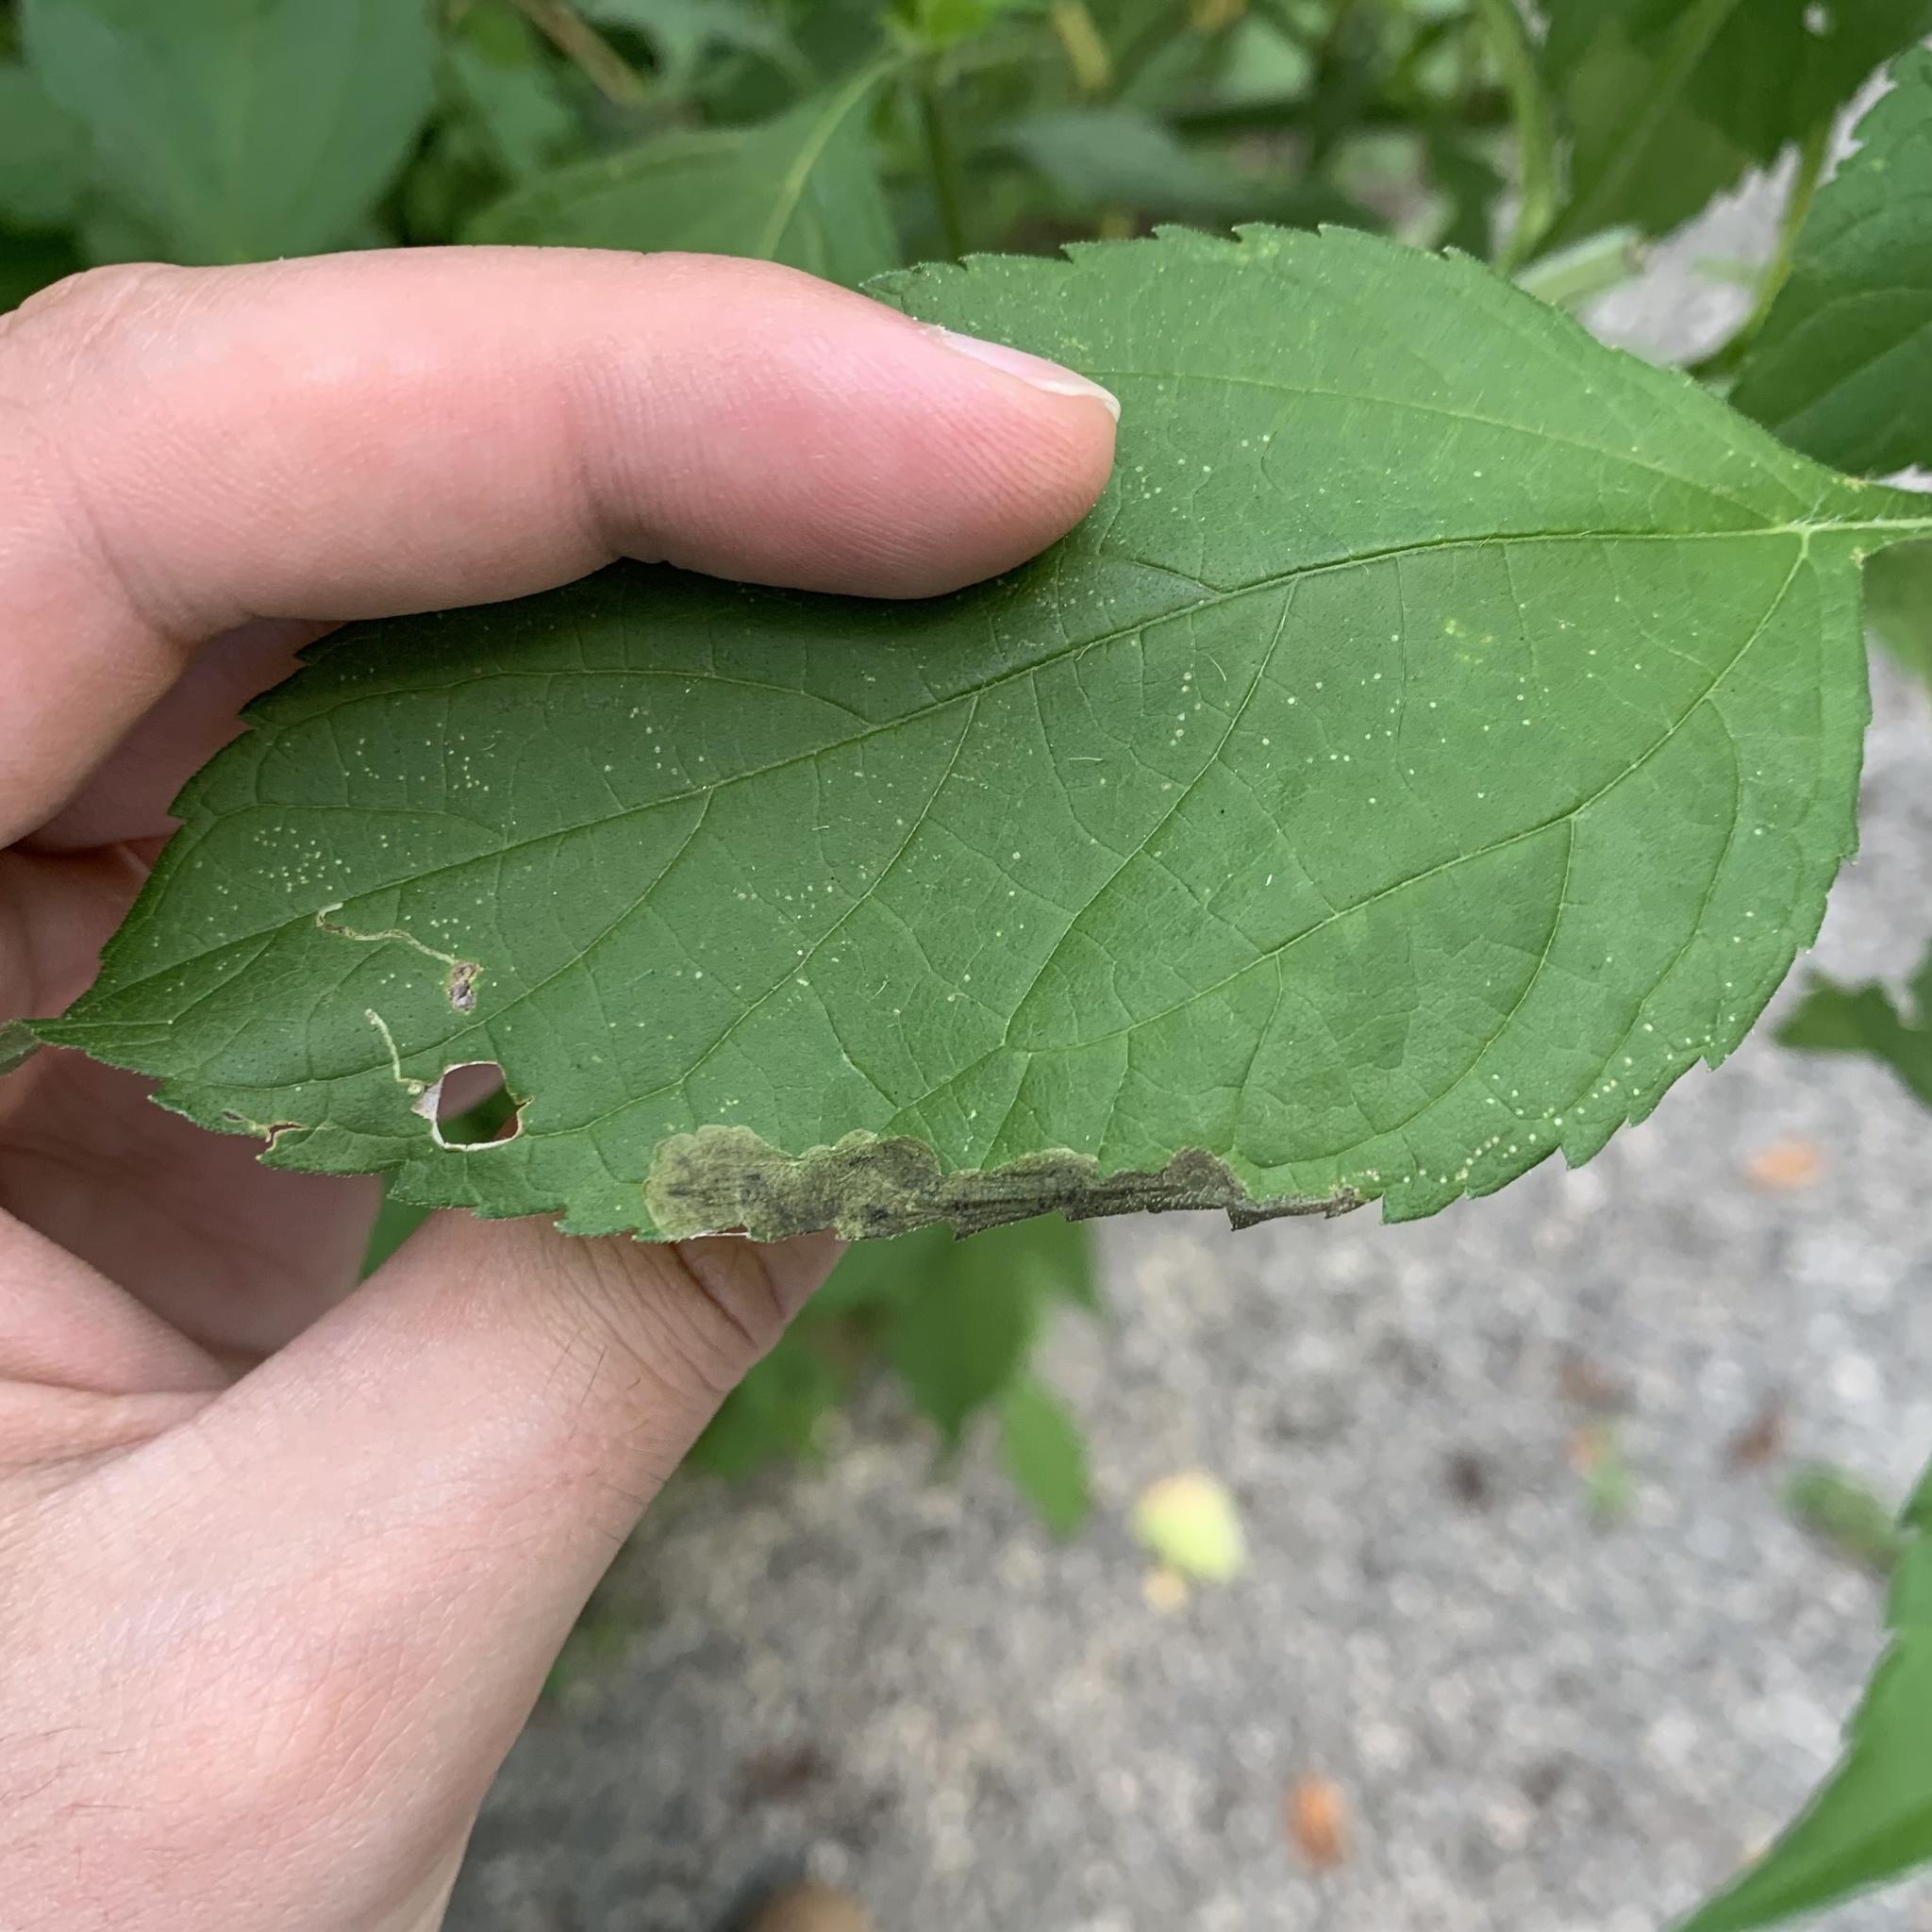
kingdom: Animalia
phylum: Arthropoda
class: Insecta
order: Diptera
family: Agromyzidae
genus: Agromyza
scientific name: Agromyza ambrosivora
